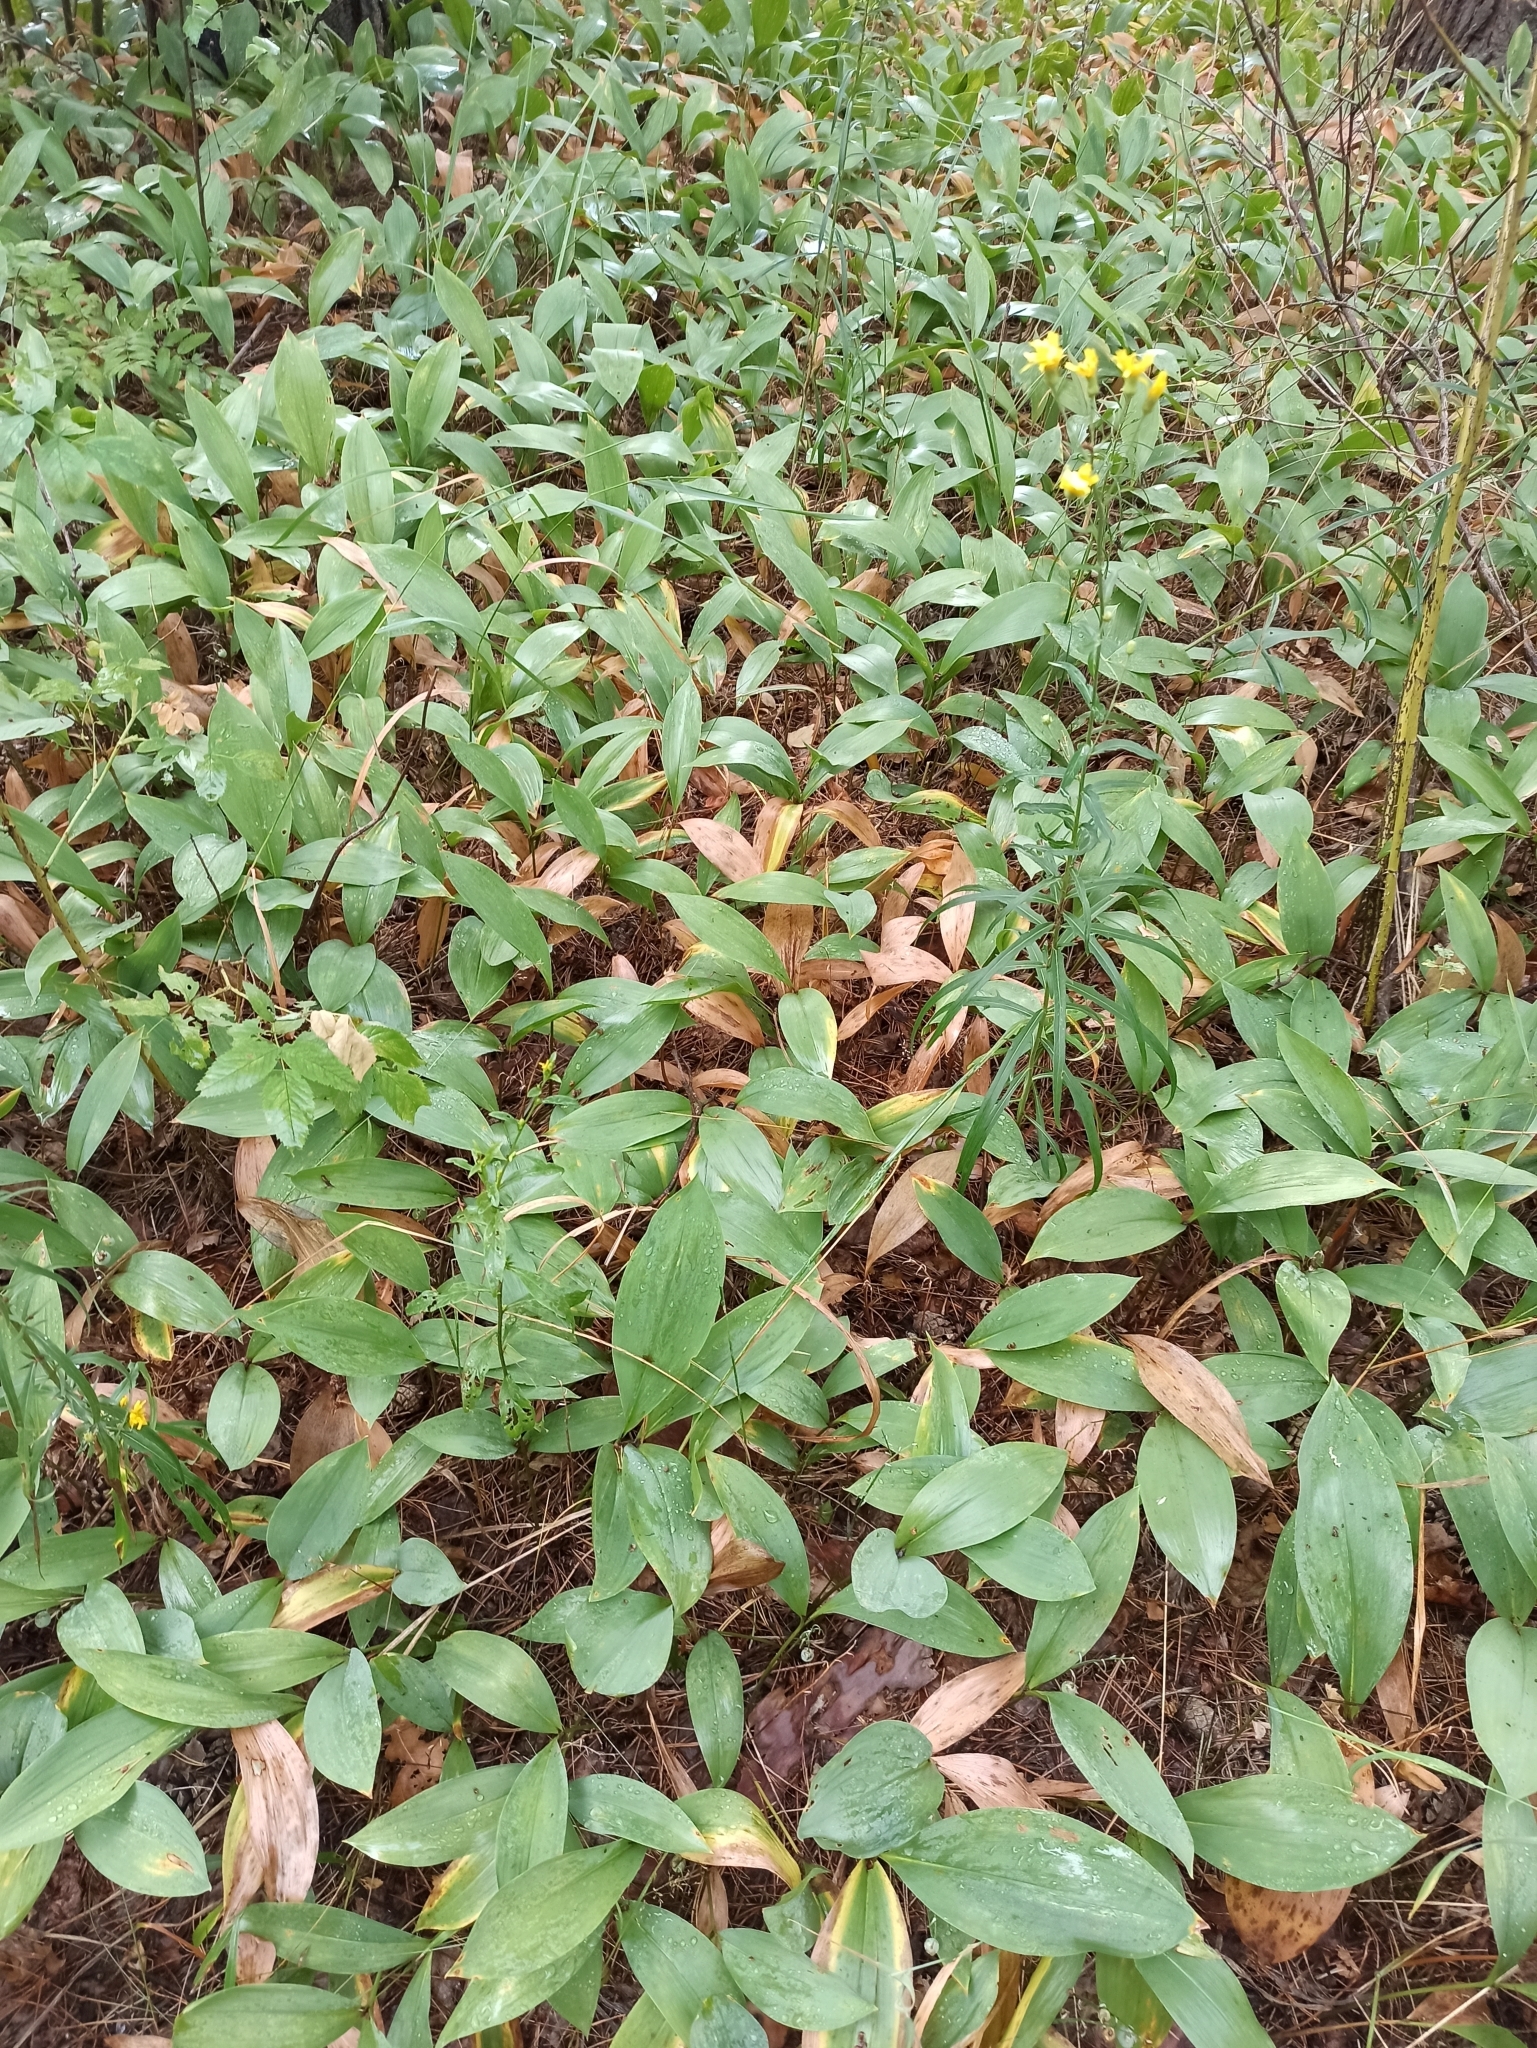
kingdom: Plantae
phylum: Tracheophyta
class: Liliopsida
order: Asparagales
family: Asparagaceae
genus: Convallaria
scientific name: Convallaria majalis
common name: Lily-of-the-valley
